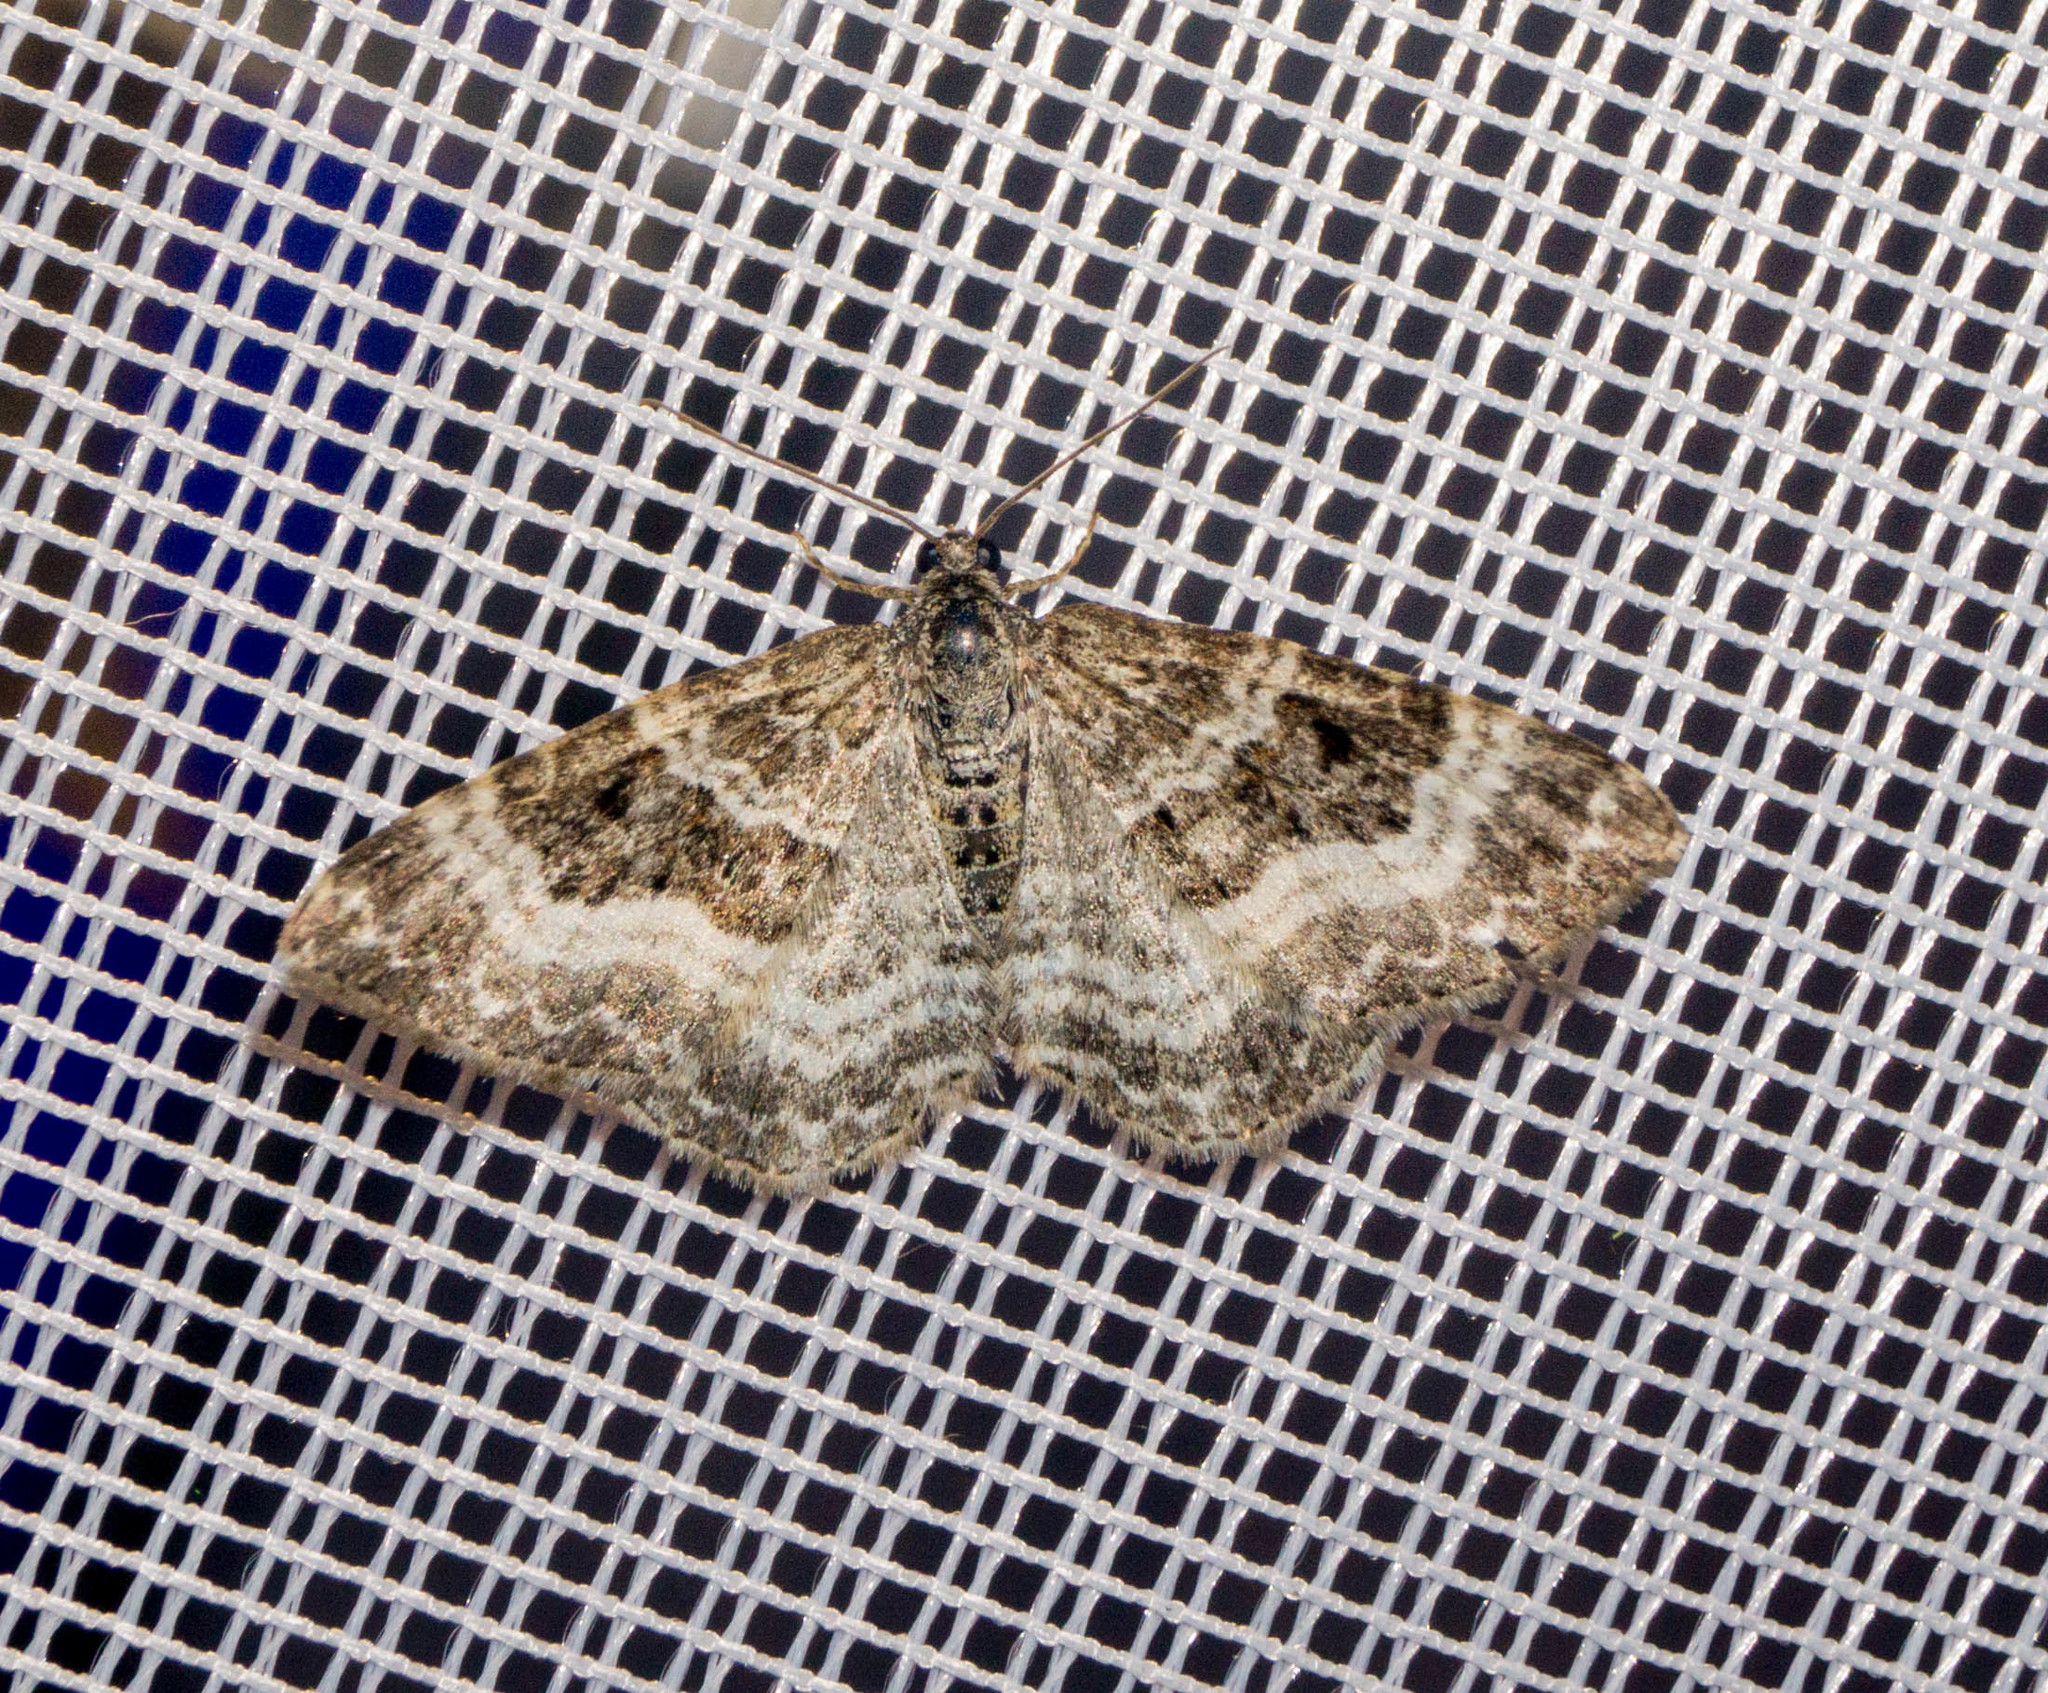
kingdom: Animalia
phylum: Arthropoda
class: Insecta
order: Lepidoptera
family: Geometridae
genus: Epirrhoe
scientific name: Epirrhoe alternata
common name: Common carpet
